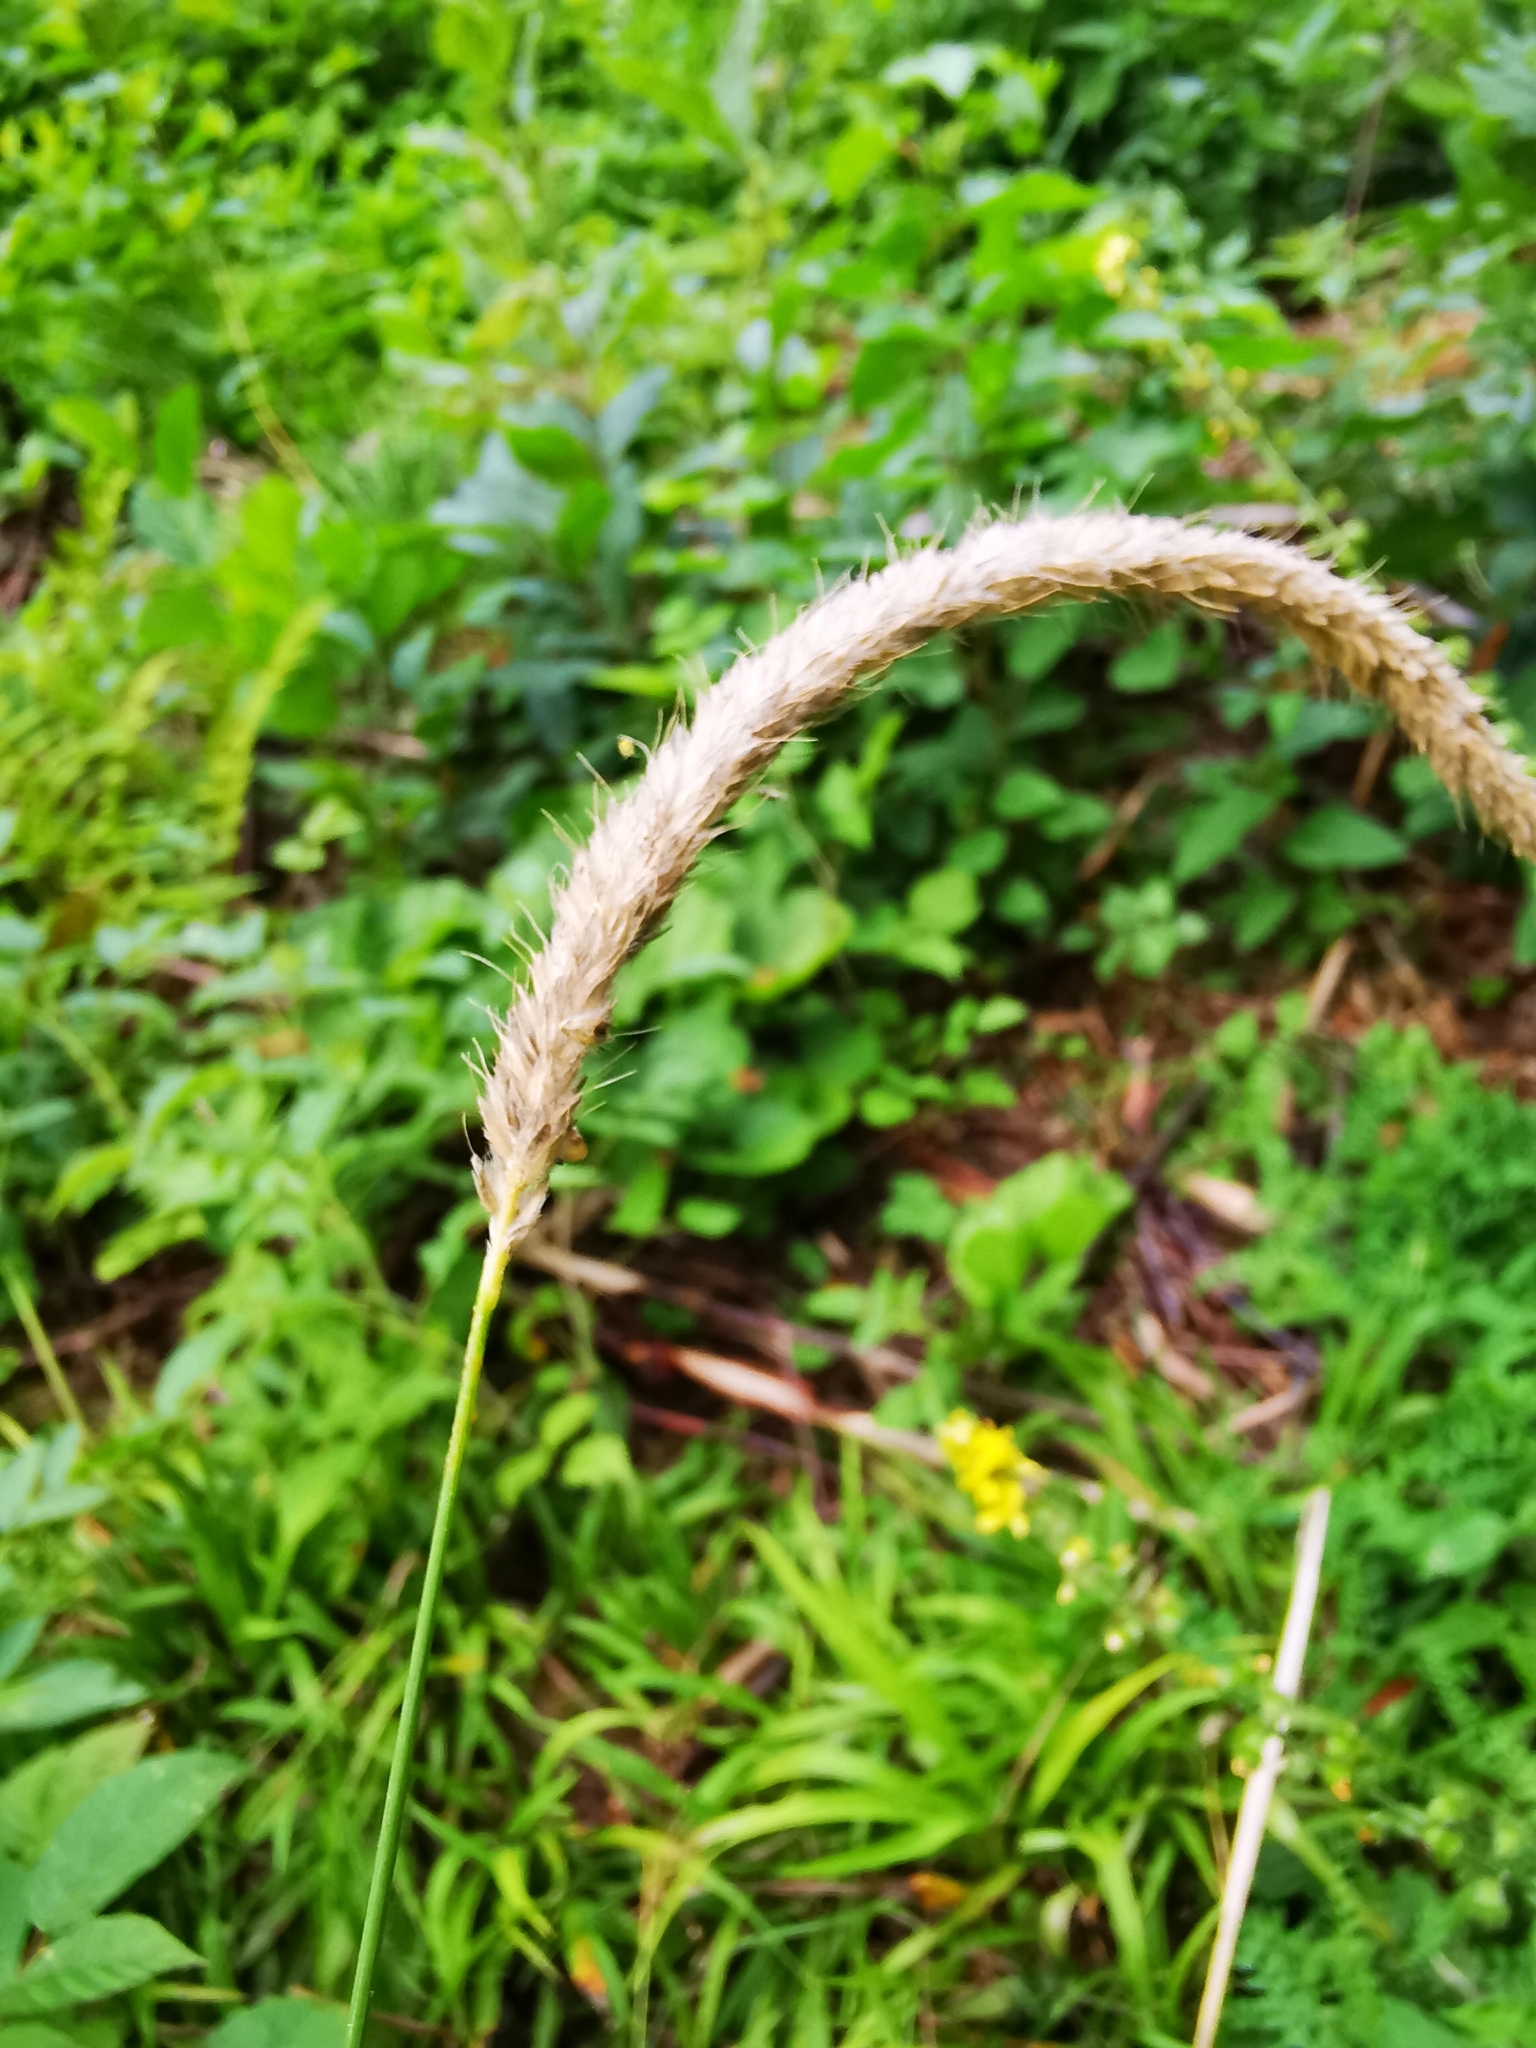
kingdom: Plantae
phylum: Tracheophyta
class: Liliopsida
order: Poales
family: Poaceae
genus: Alopecurus
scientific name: Alopecurus pratensis
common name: Meadow foxtail
